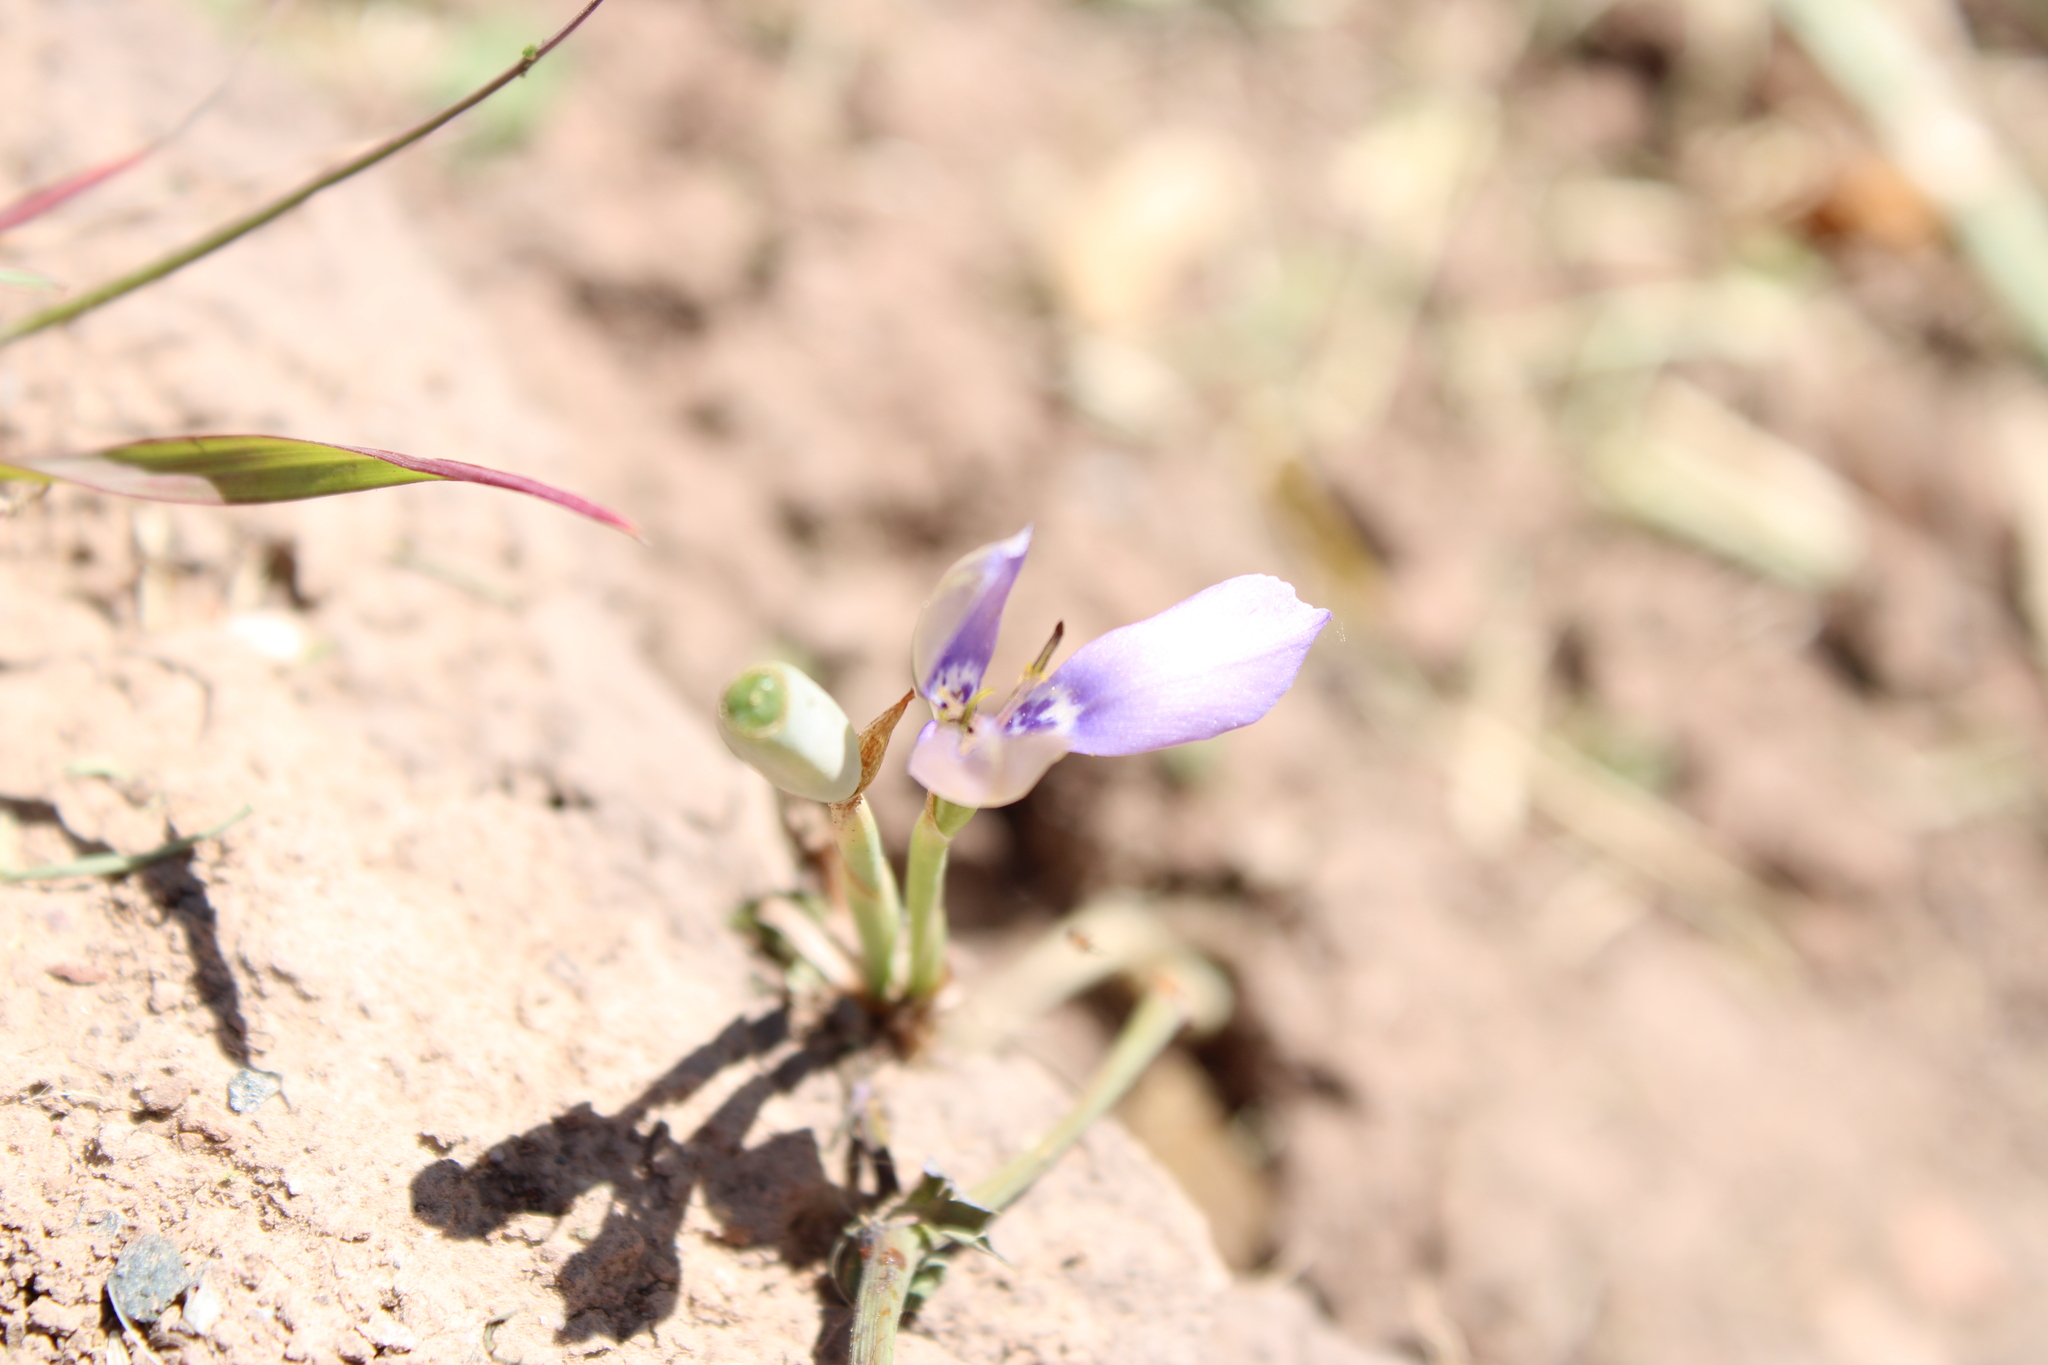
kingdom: Plantae
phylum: Tracheophyta
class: Liliopsida
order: Asparagales
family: Iridaceae
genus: Herbertia
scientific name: Herbertia lahue
